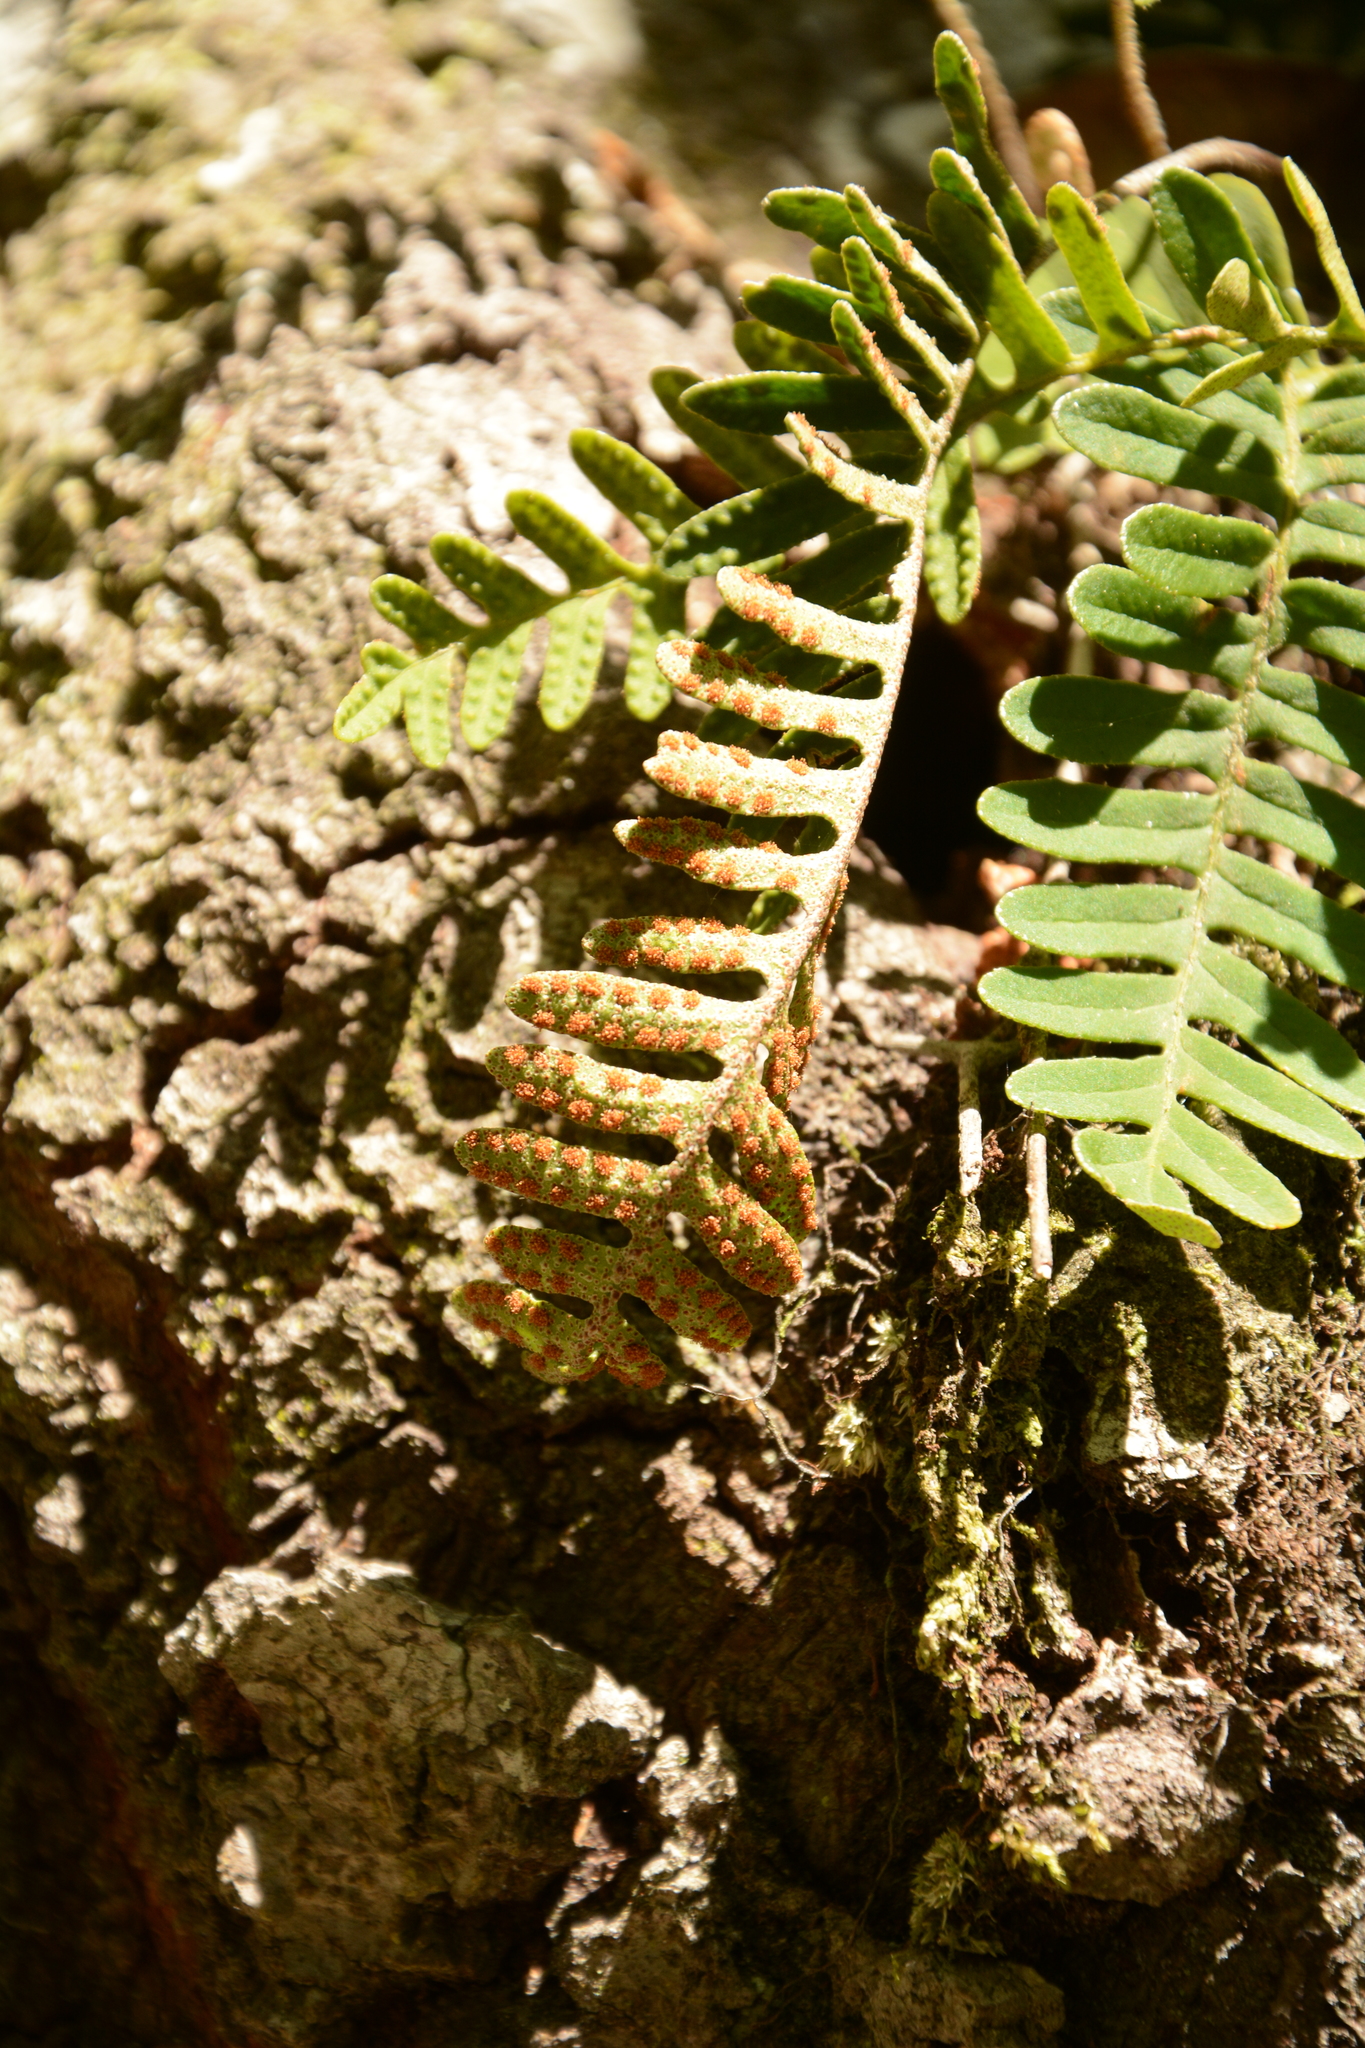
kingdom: Plantae
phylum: Tracheophyta
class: Polypodiopsida
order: Polypodiales
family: Polypodiaceae
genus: Pleopeltis
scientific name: Pleopeltis michauxiana
